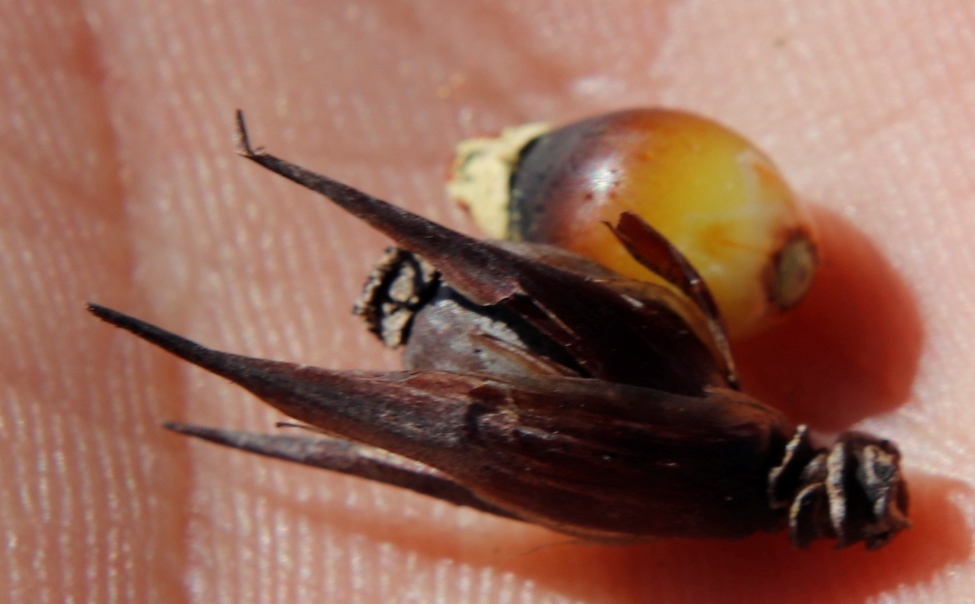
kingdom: Plantae
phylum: Tracheophyta
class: Liliopsida
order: Poales
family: Restionaceae
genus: Willdenowia
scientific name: Willdenowia incurvata
